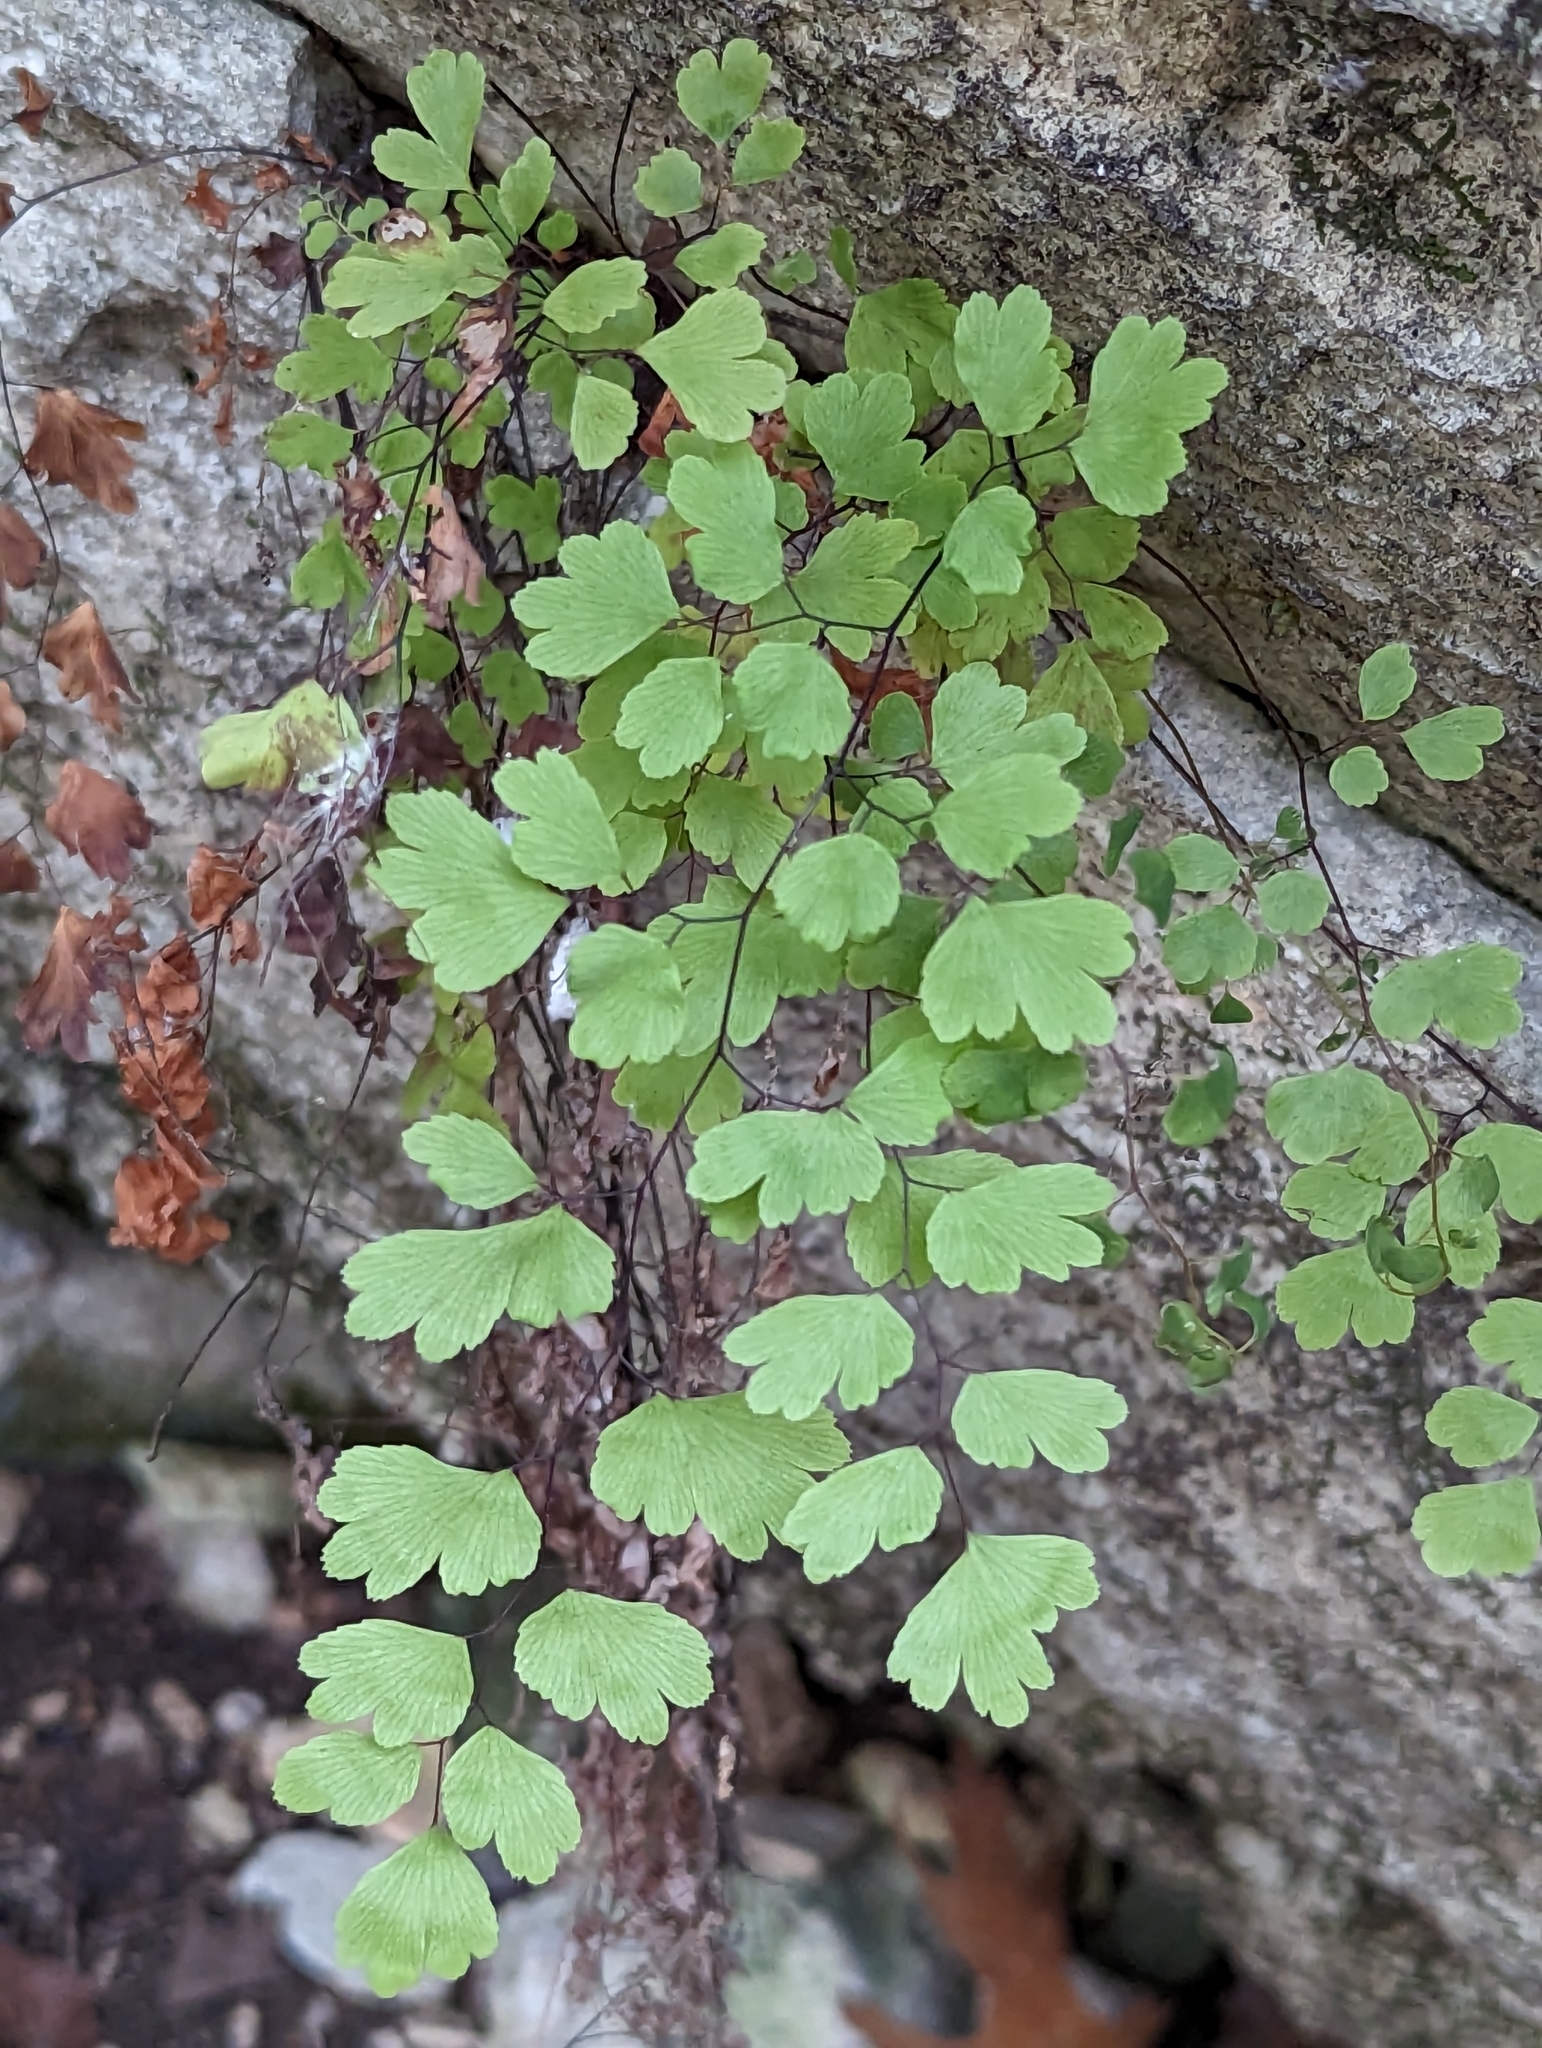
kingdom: Plantae
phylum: Tracheophyta
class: Polypodiopsida
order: Polypodiales
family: Pteridaceae
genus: Adiantum
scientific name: Adiantum capillus-veneris
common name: Maidenhair fern
